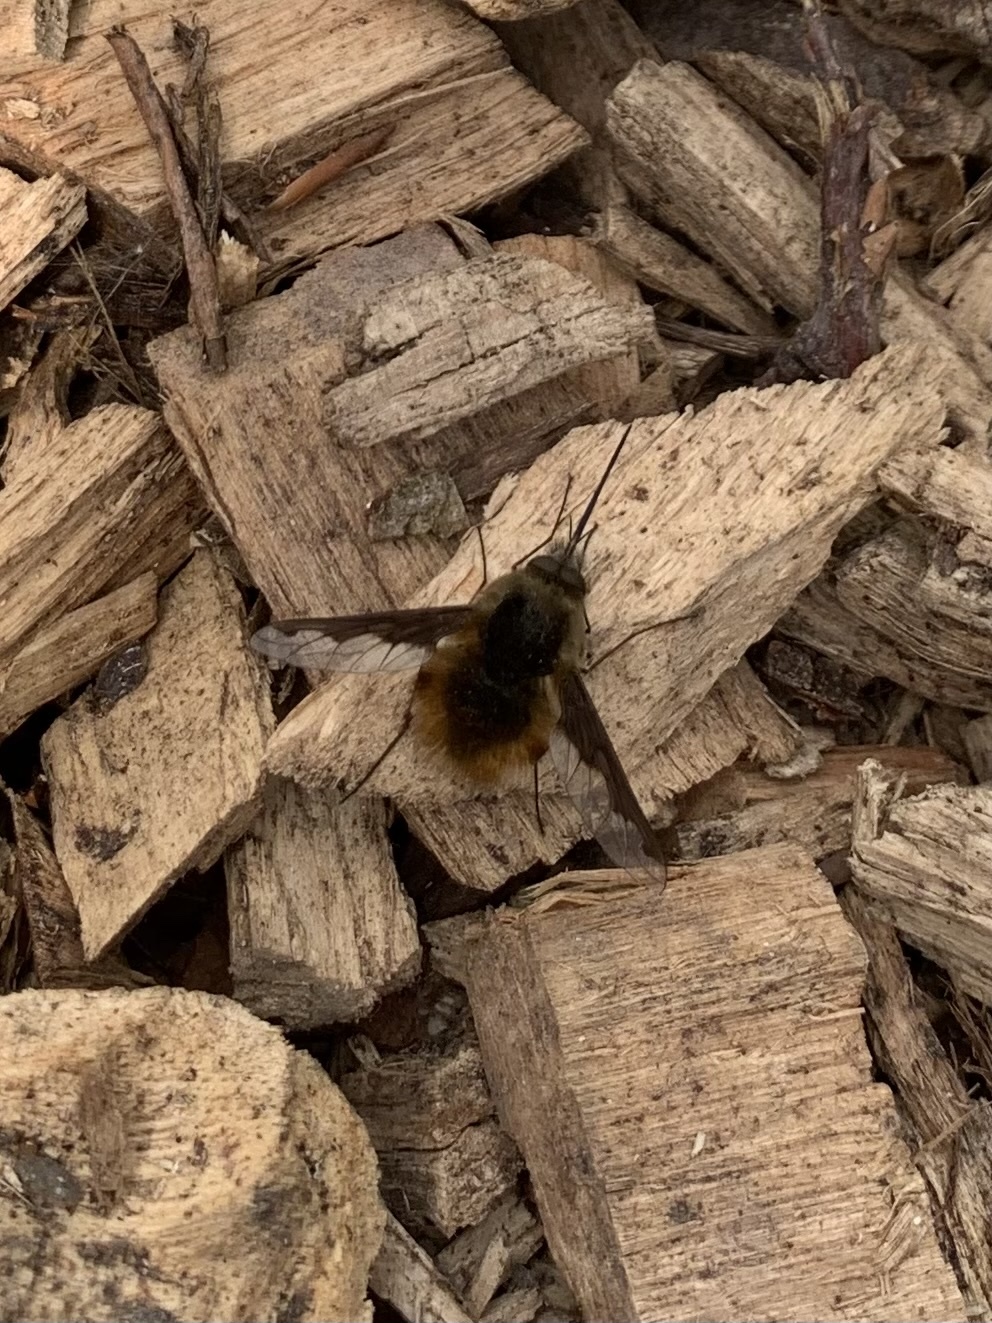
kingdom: Animalia
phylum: Arthropoda
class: Insecta
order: Diptera
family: Bombyliidae
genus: Bombylius
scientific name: Bombylius major
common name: Bee fly
